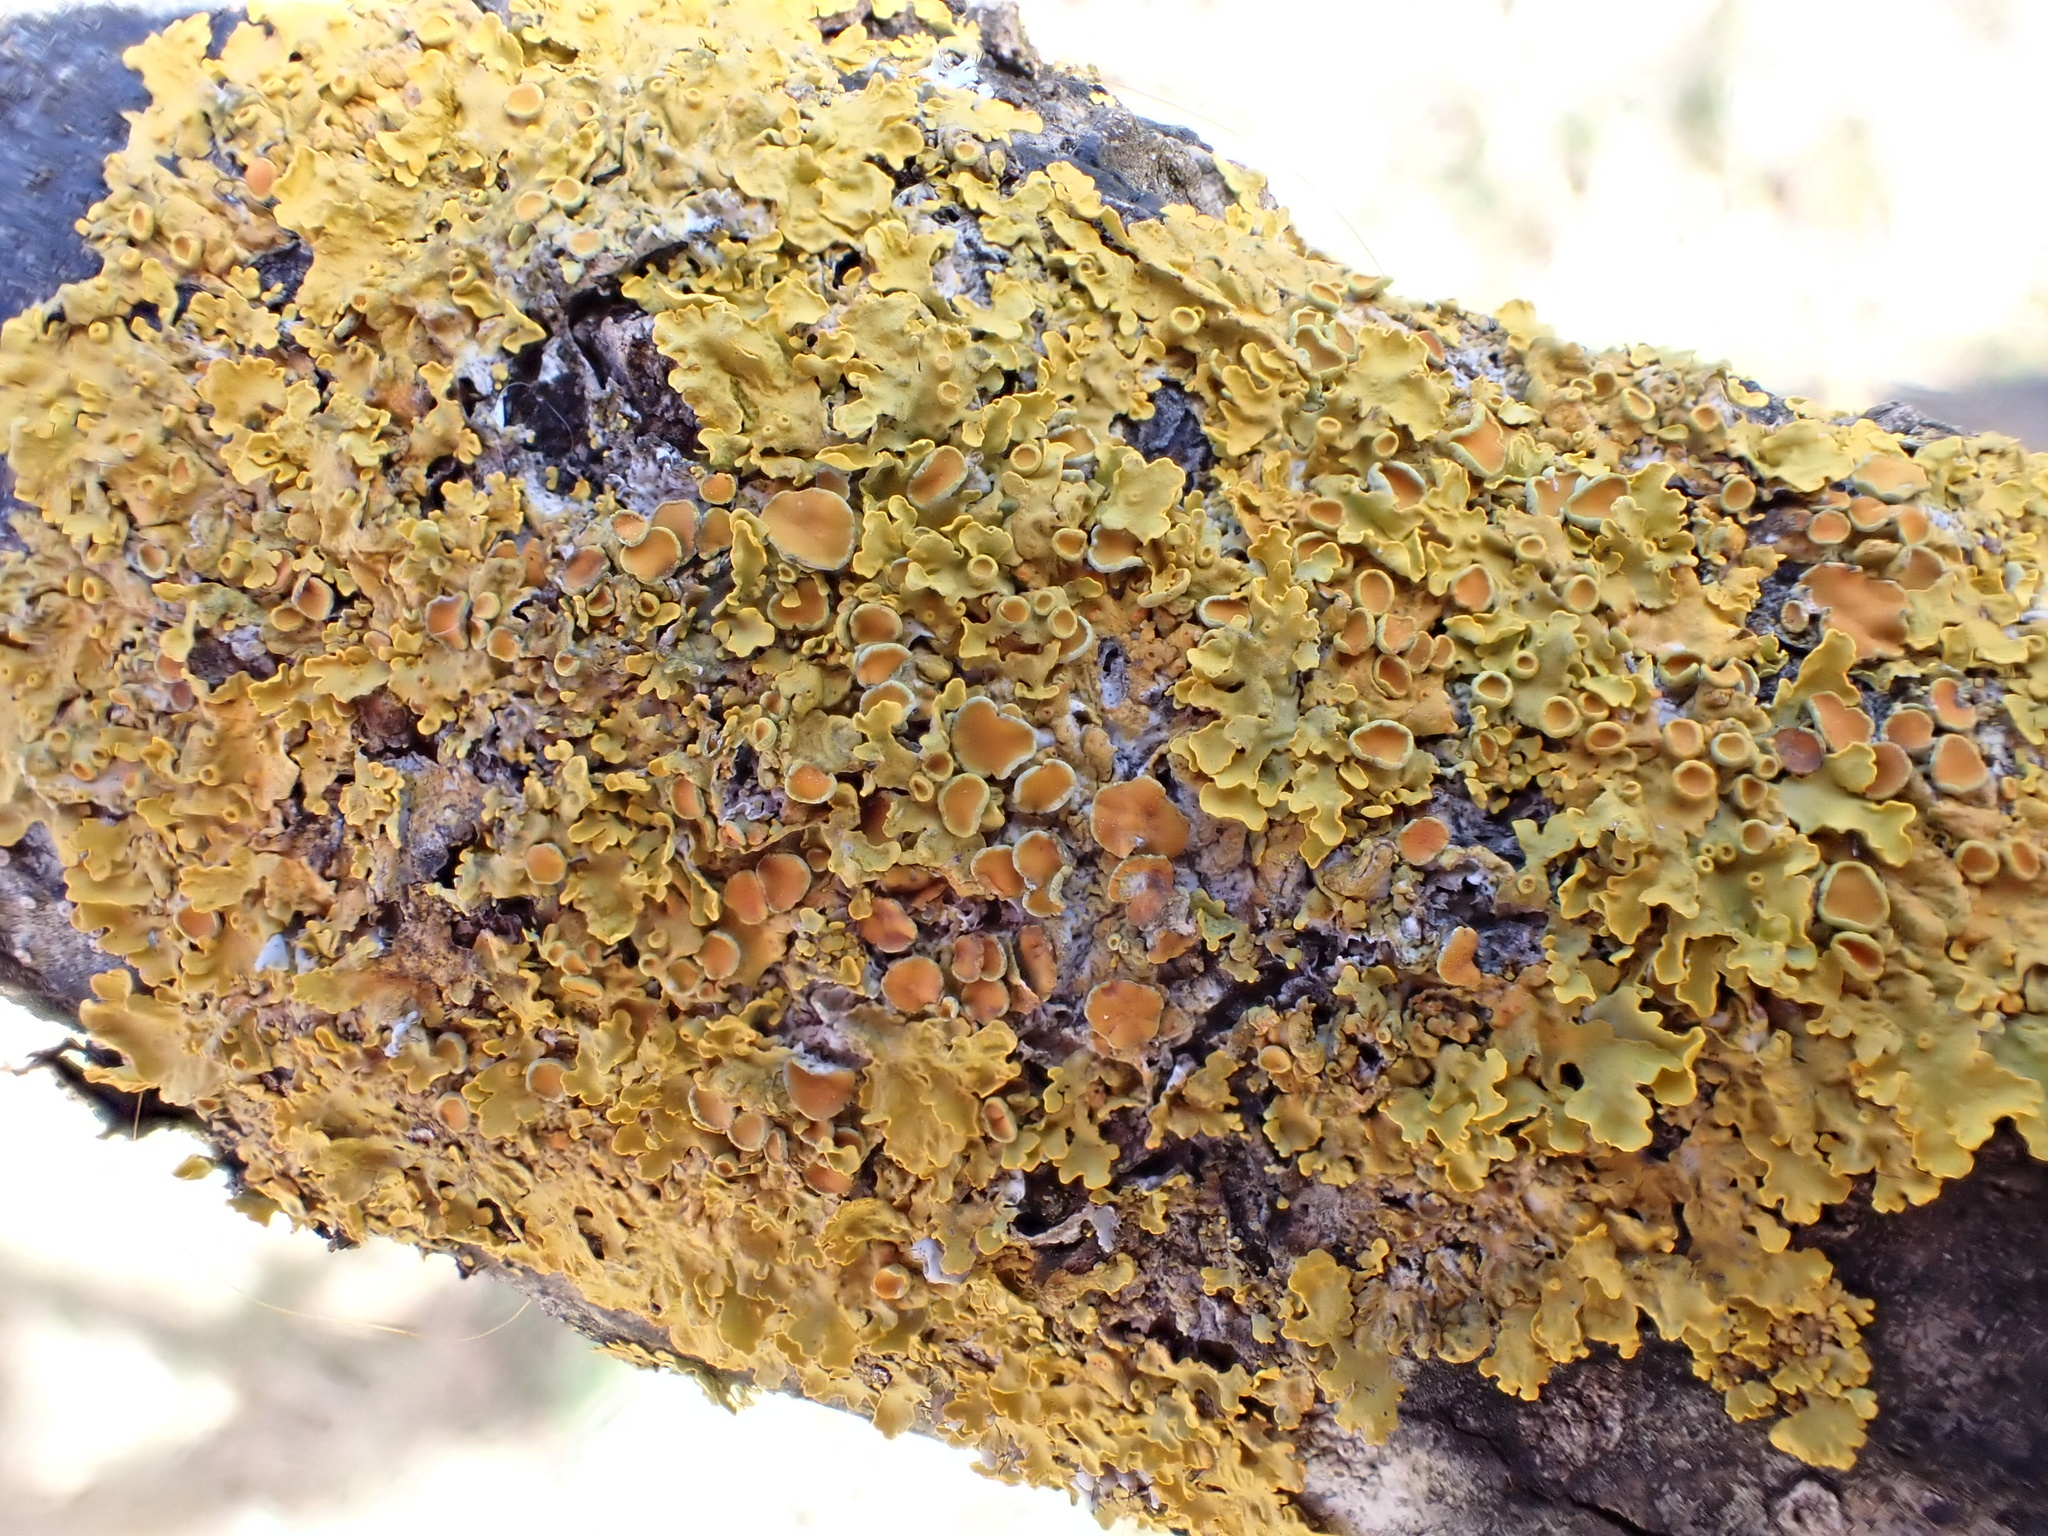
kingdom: Fungi
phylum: Ascomycota
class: Lecanoromycetes
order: Teloschistales
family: Teloschistaceae
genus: Xanthoria
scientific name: Xanthoria parietina
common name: Common orange lichen
